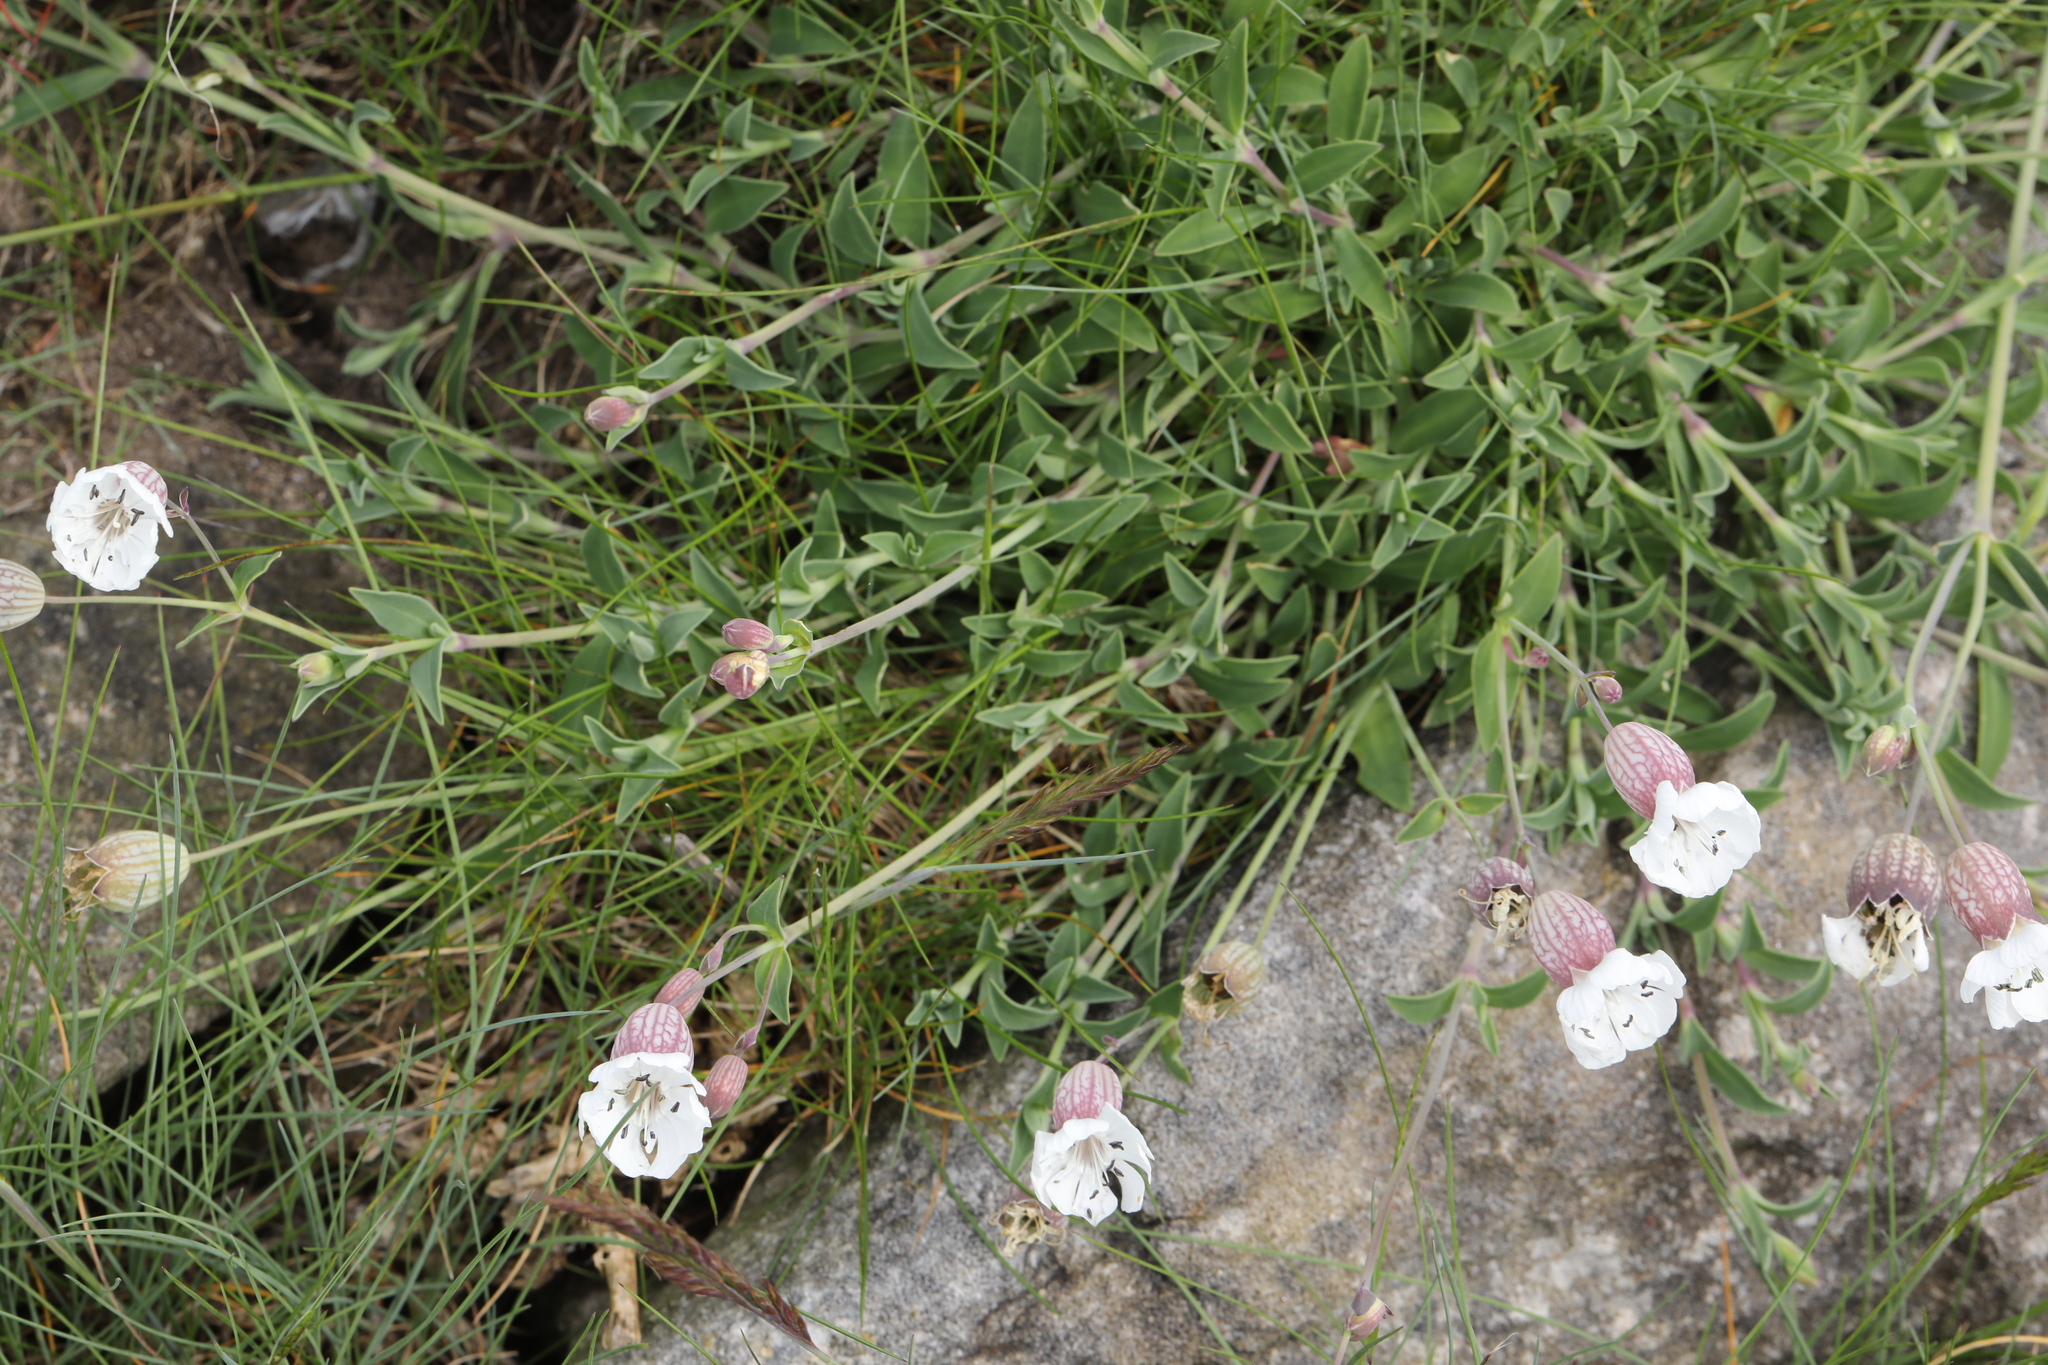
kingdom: Plantae
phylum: Tracheophyta
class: Magnoliopsida
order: Caryophyllales
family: Caryophyllaceae
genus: Silene
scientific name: Silene uniflora
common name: Sea campion
